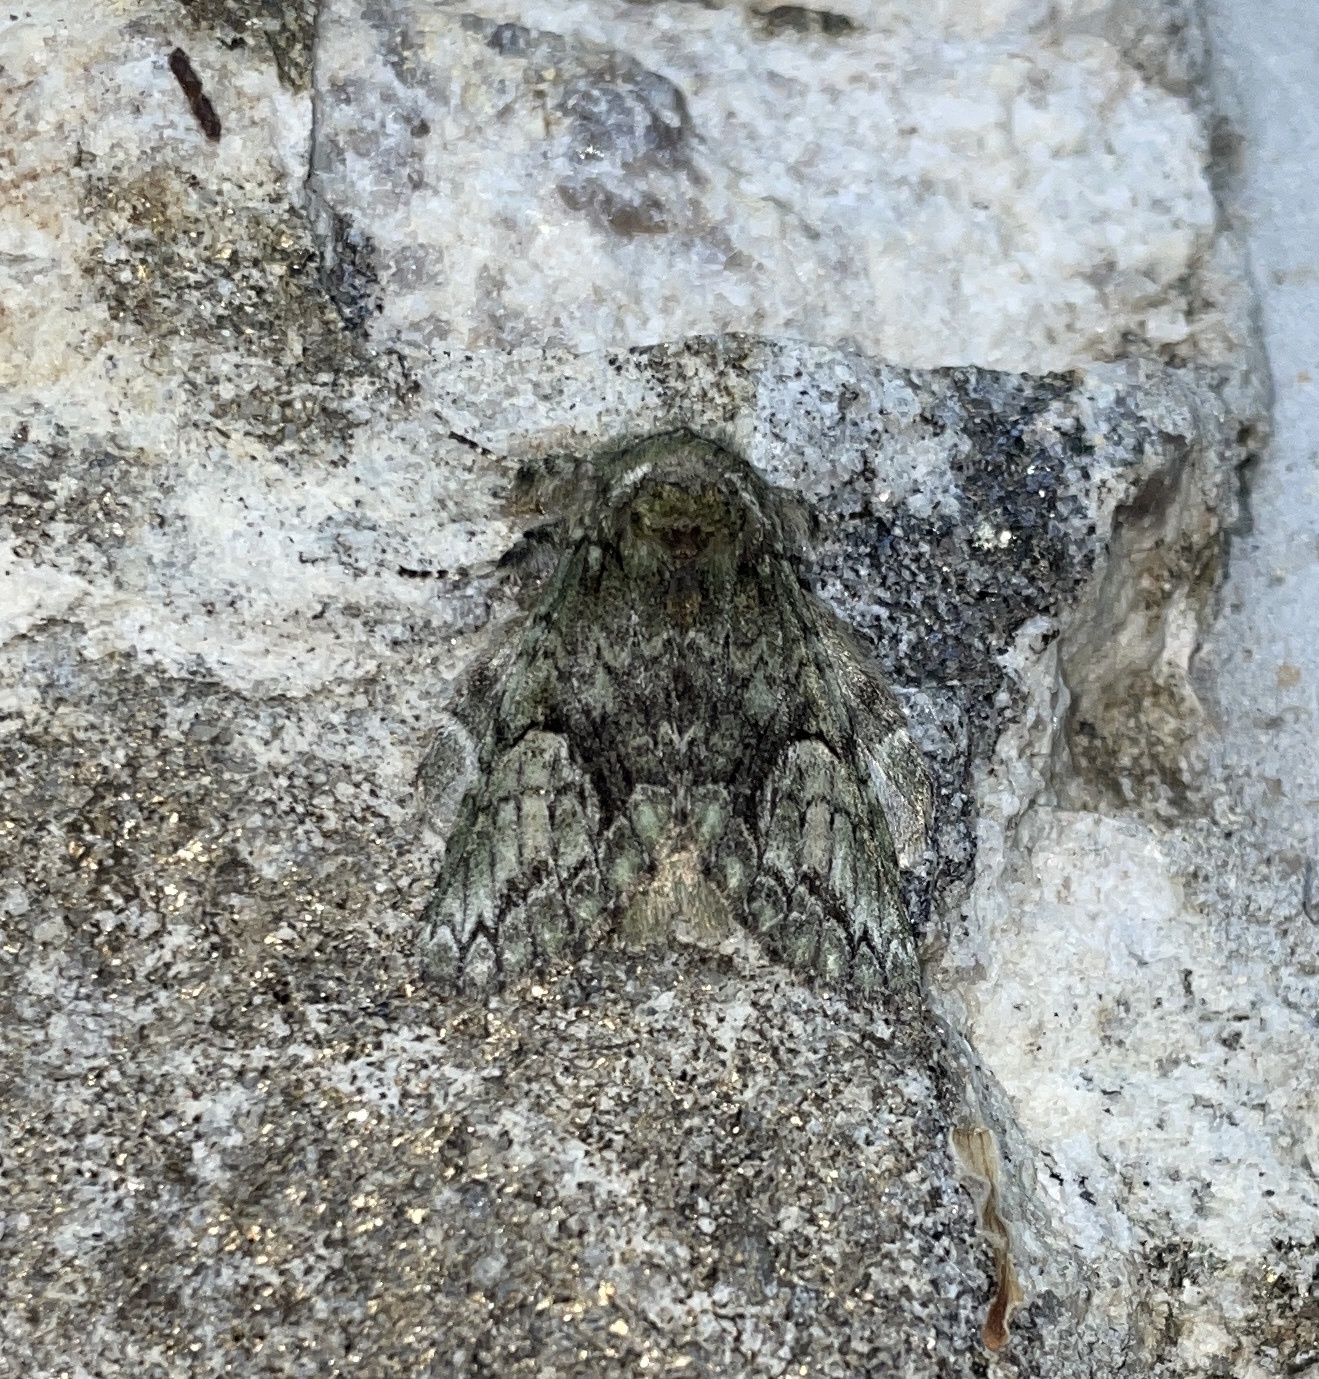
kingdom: Animalia
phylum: Arthropoda
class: Insecta
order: Lepidoptera
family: Notodontidae
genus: Heterocampa
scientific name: Heterocampa
